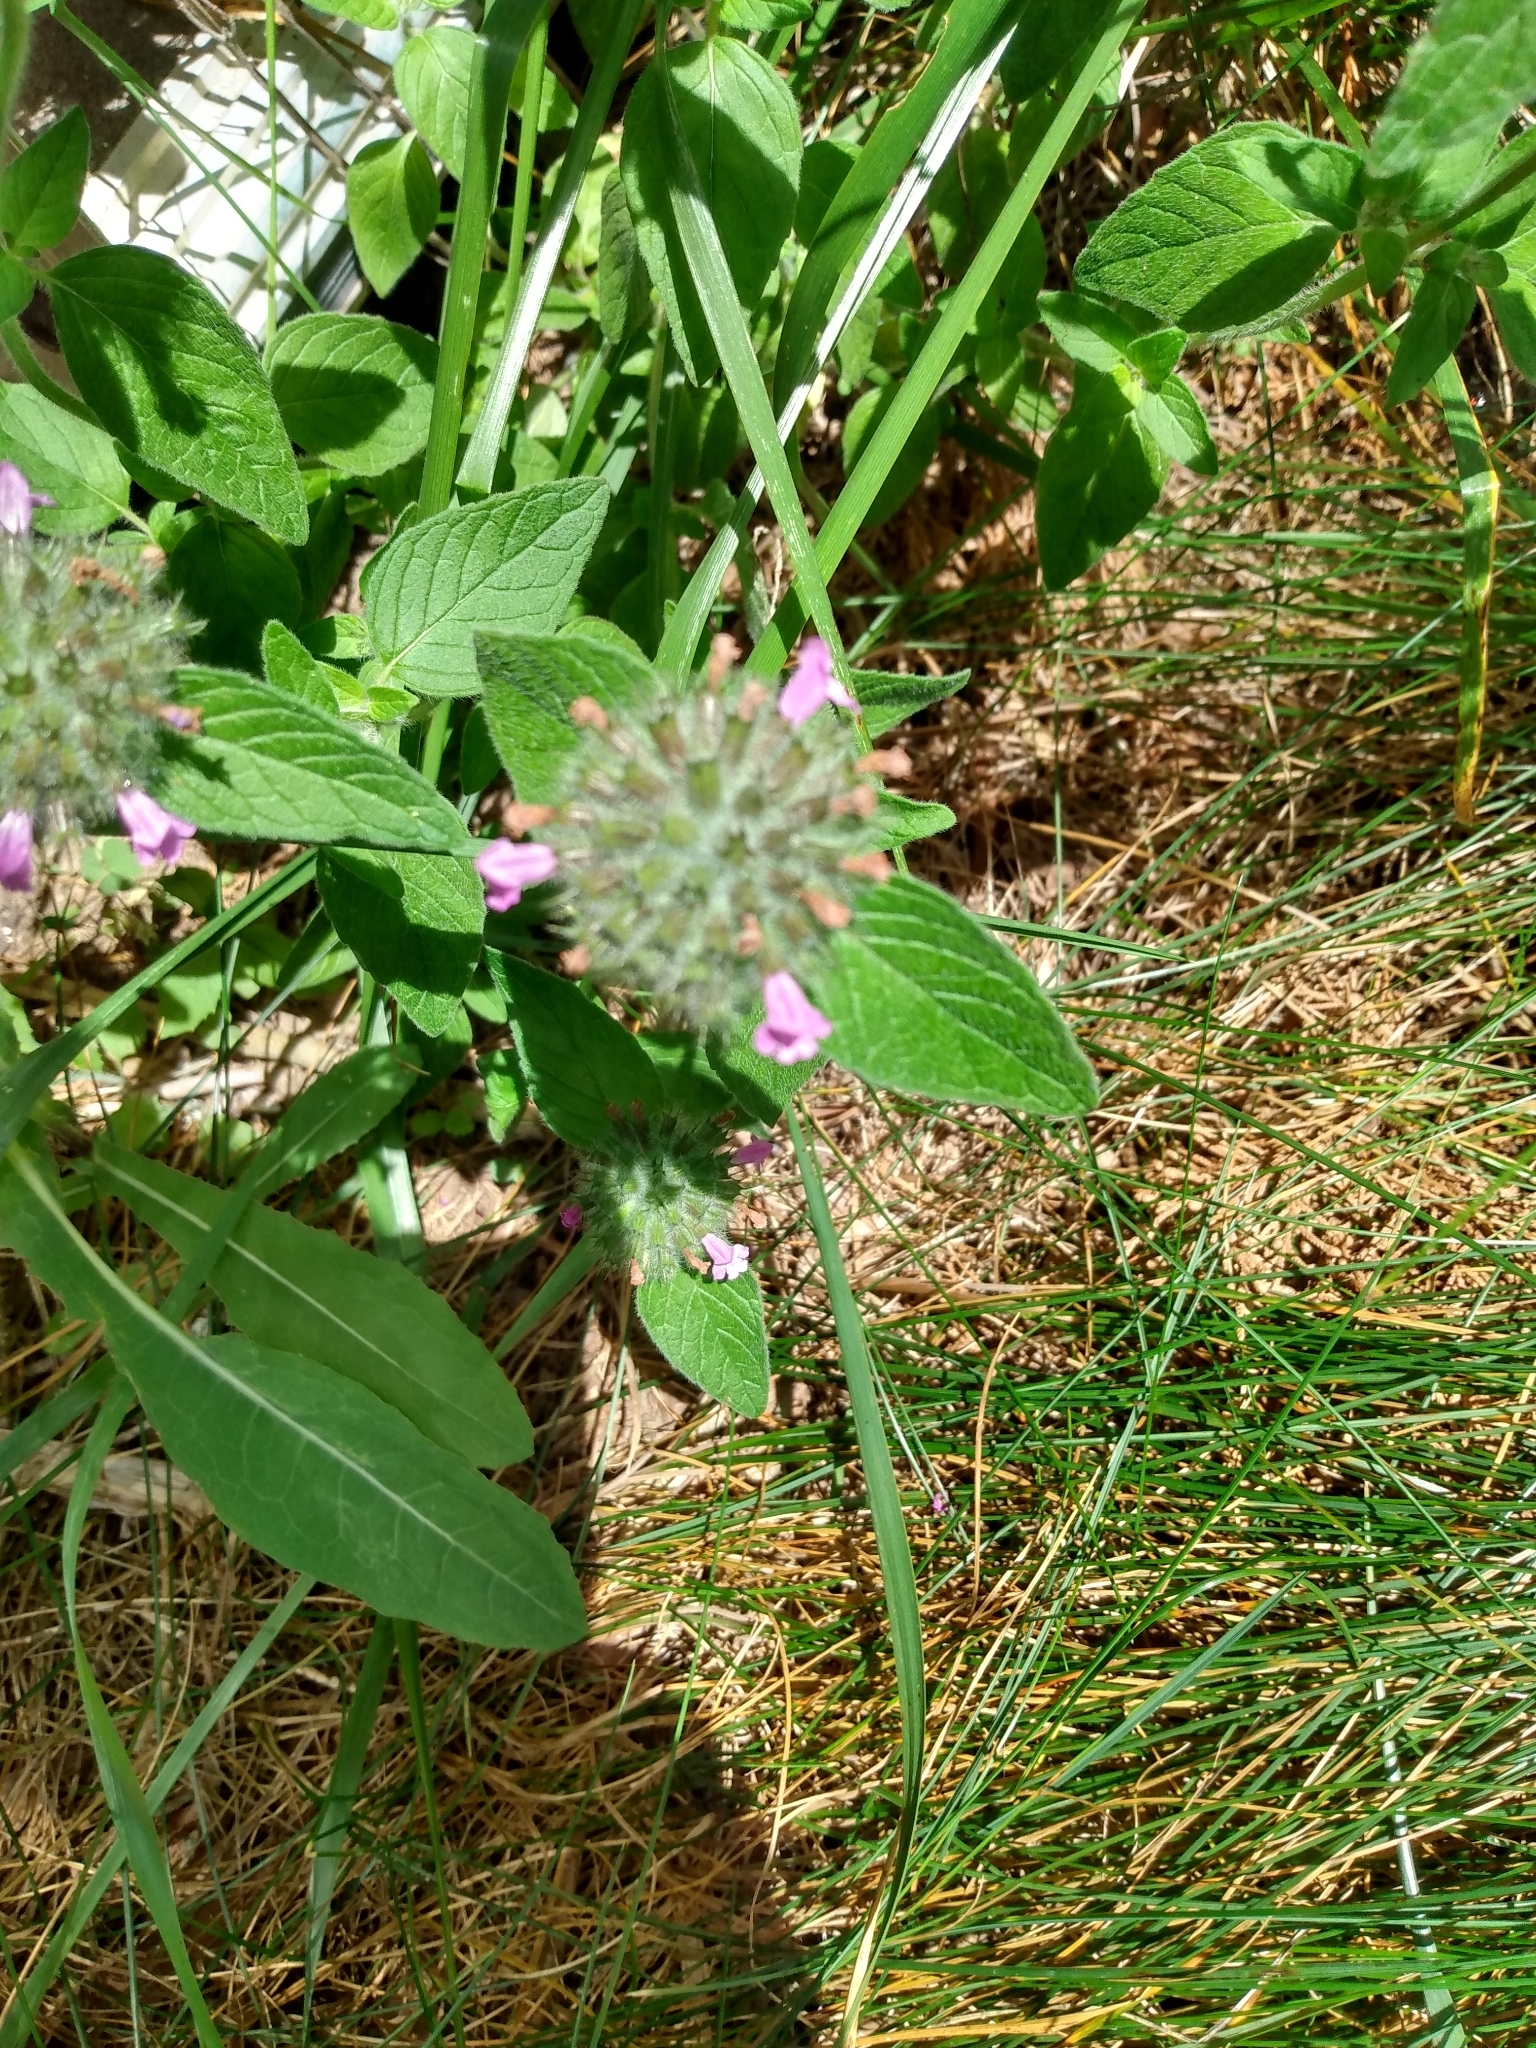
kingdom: Plantae
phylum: Tracheophyta
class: Magnoliopsida
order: Lamiales
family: Lamiaceae
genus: Clinopodium
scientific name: Clinopodium vulgare
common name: Wild basil
